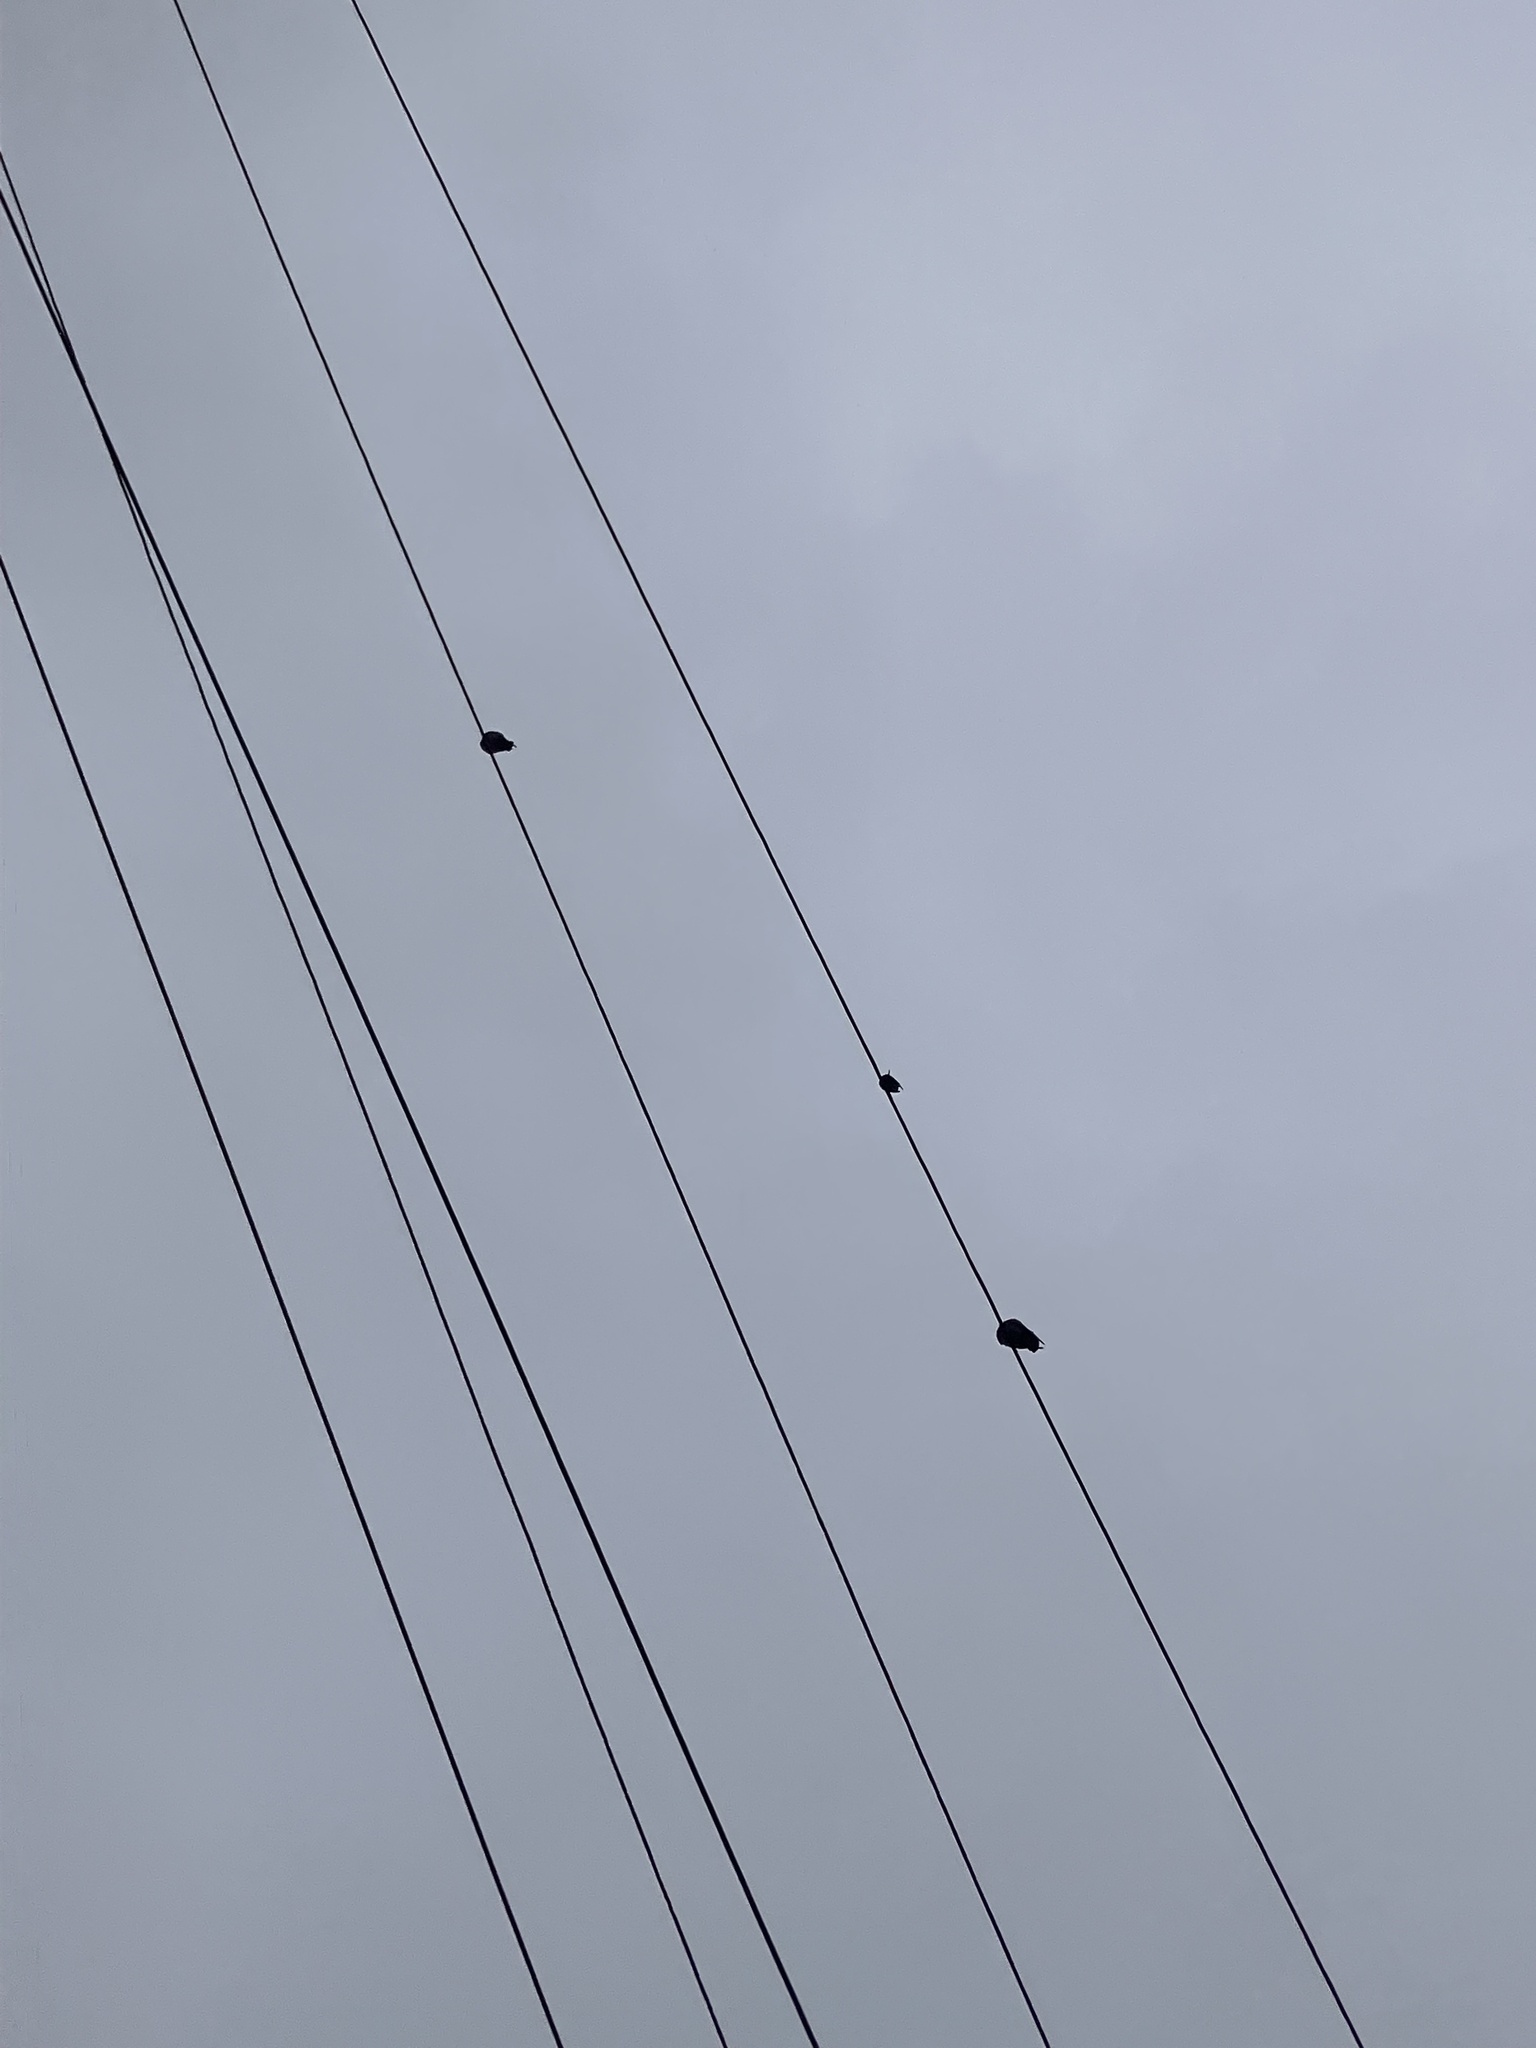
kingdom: Animalia
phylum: Chordata
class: Aves
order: Columbiformes
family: Columbidae
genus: Columba
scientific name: Columba livia
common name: Rock pigeon
